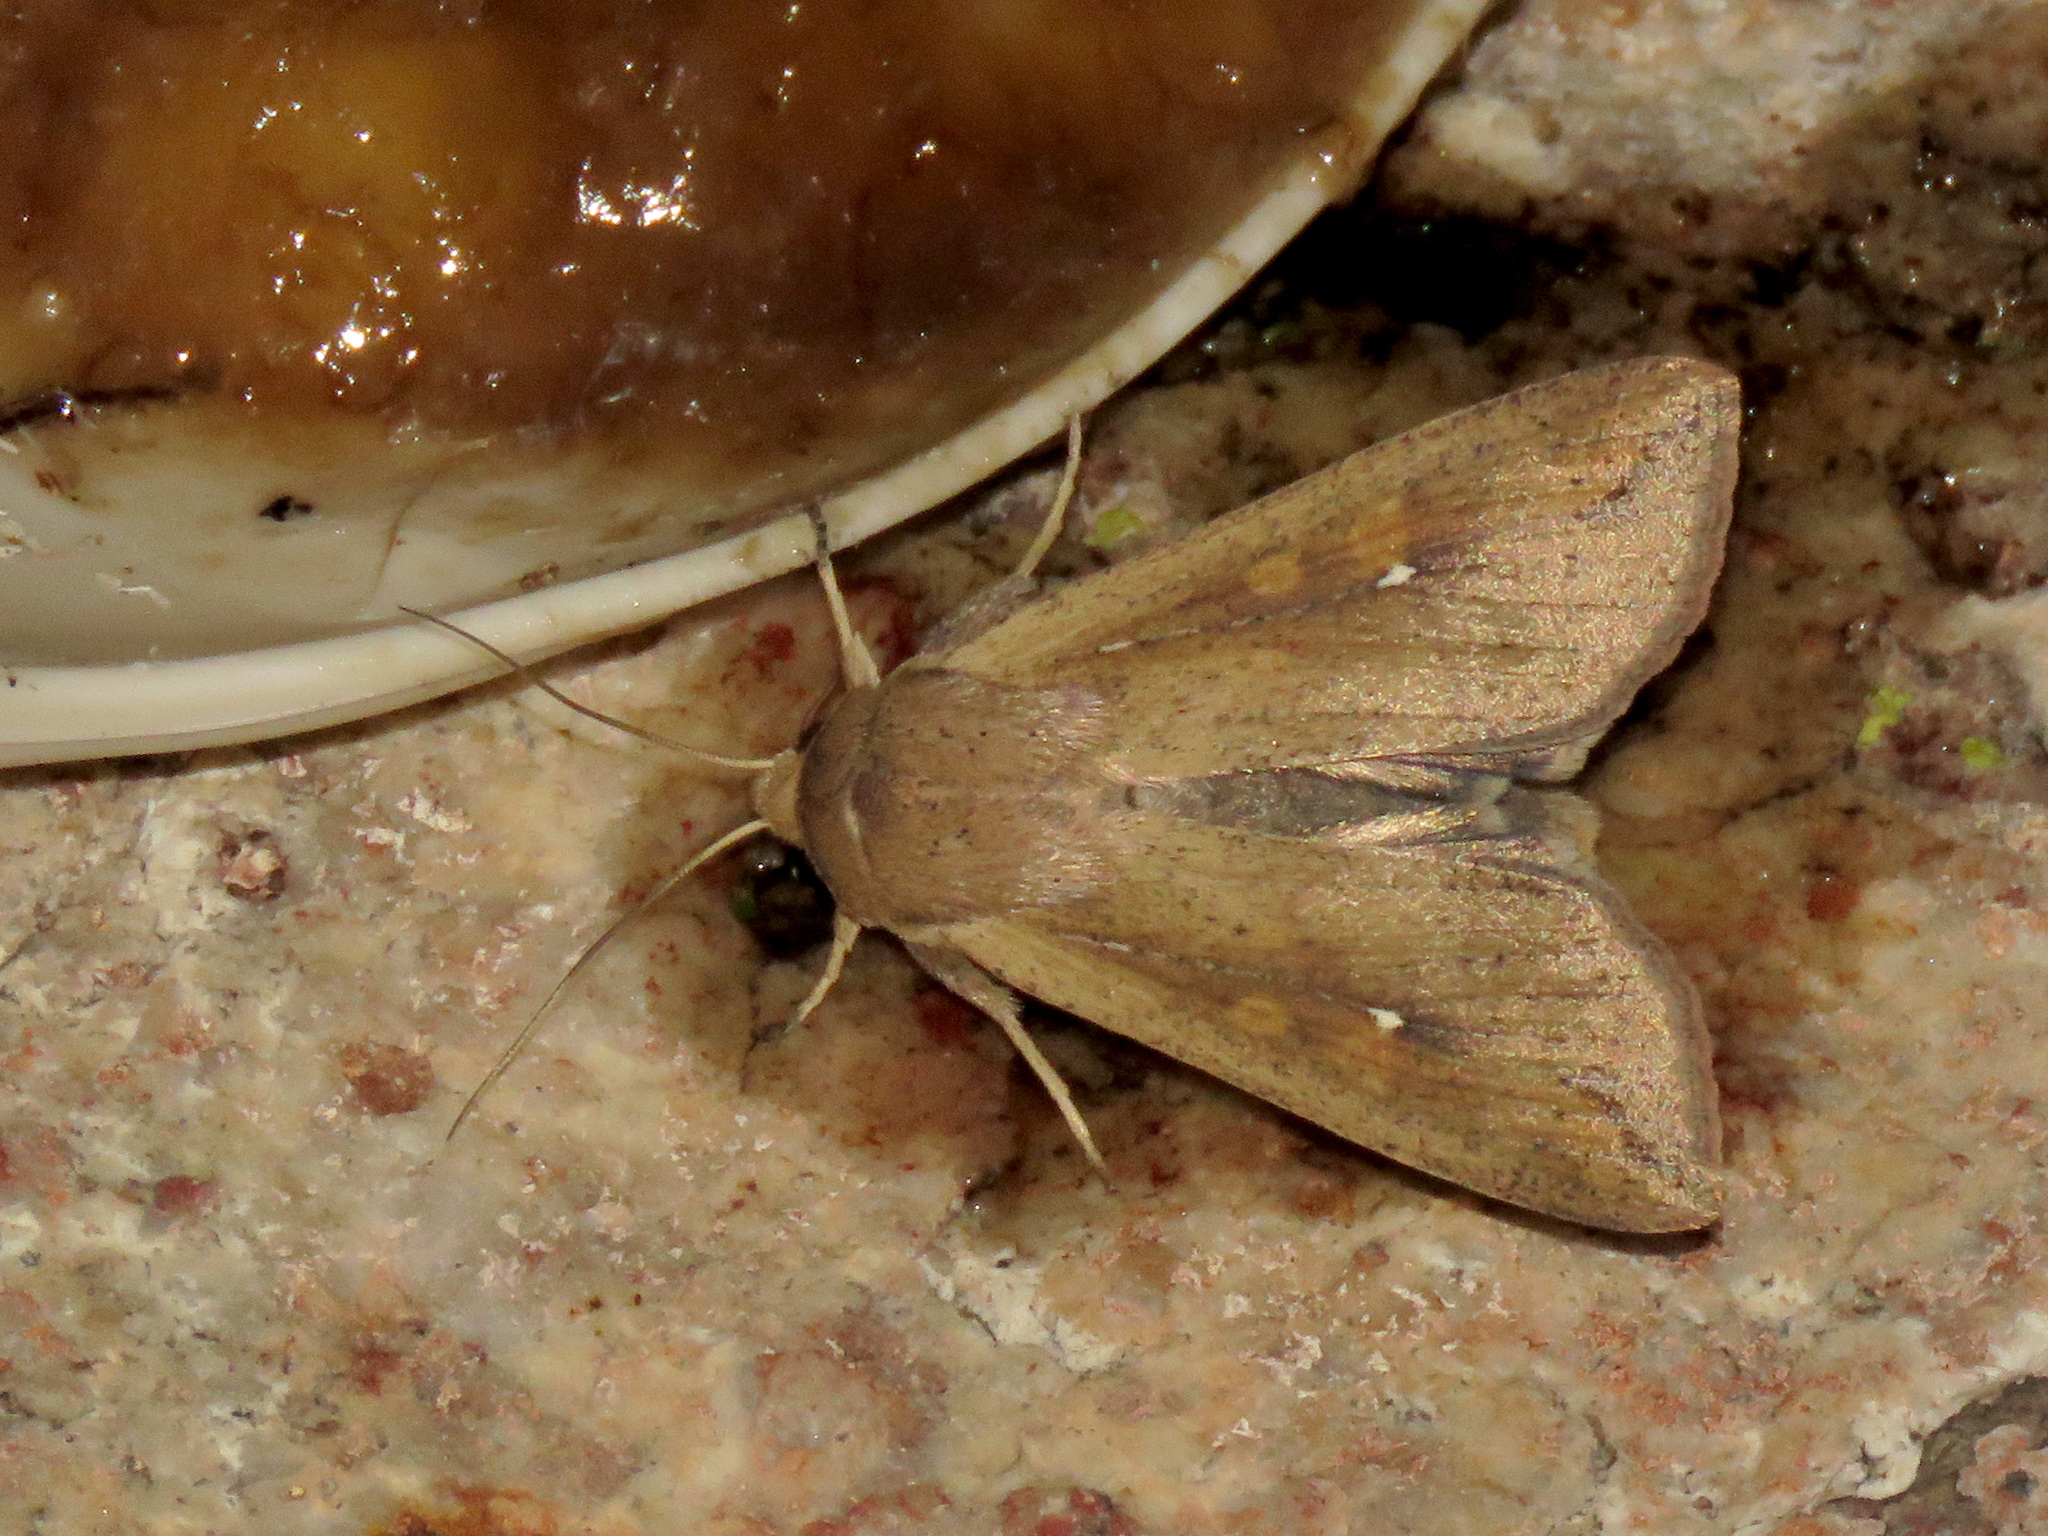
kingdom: Animalia
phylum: Arthropoda
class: Insecta
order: Lepidoptera
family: Noctuidae
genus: Mythimna
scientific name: Mythimna unipuncta
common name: White-speck
